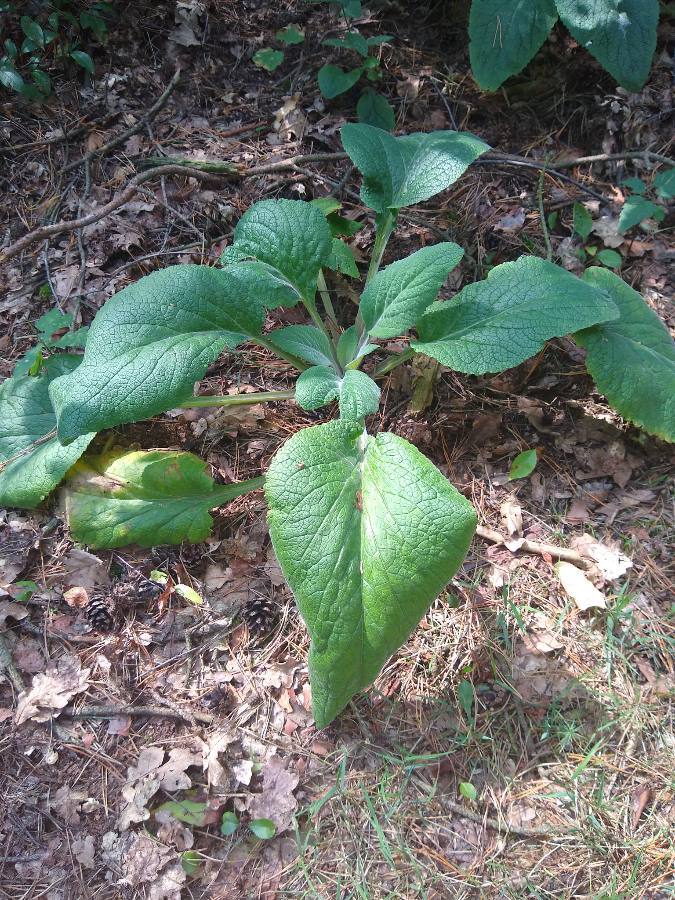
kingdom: Plantae
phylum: Tracheophyta
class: Magnoliopsida
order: Lamiales
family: Plantaginaceae
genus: Digitalis
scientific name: Digitalis purpurea
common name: Foxglove
